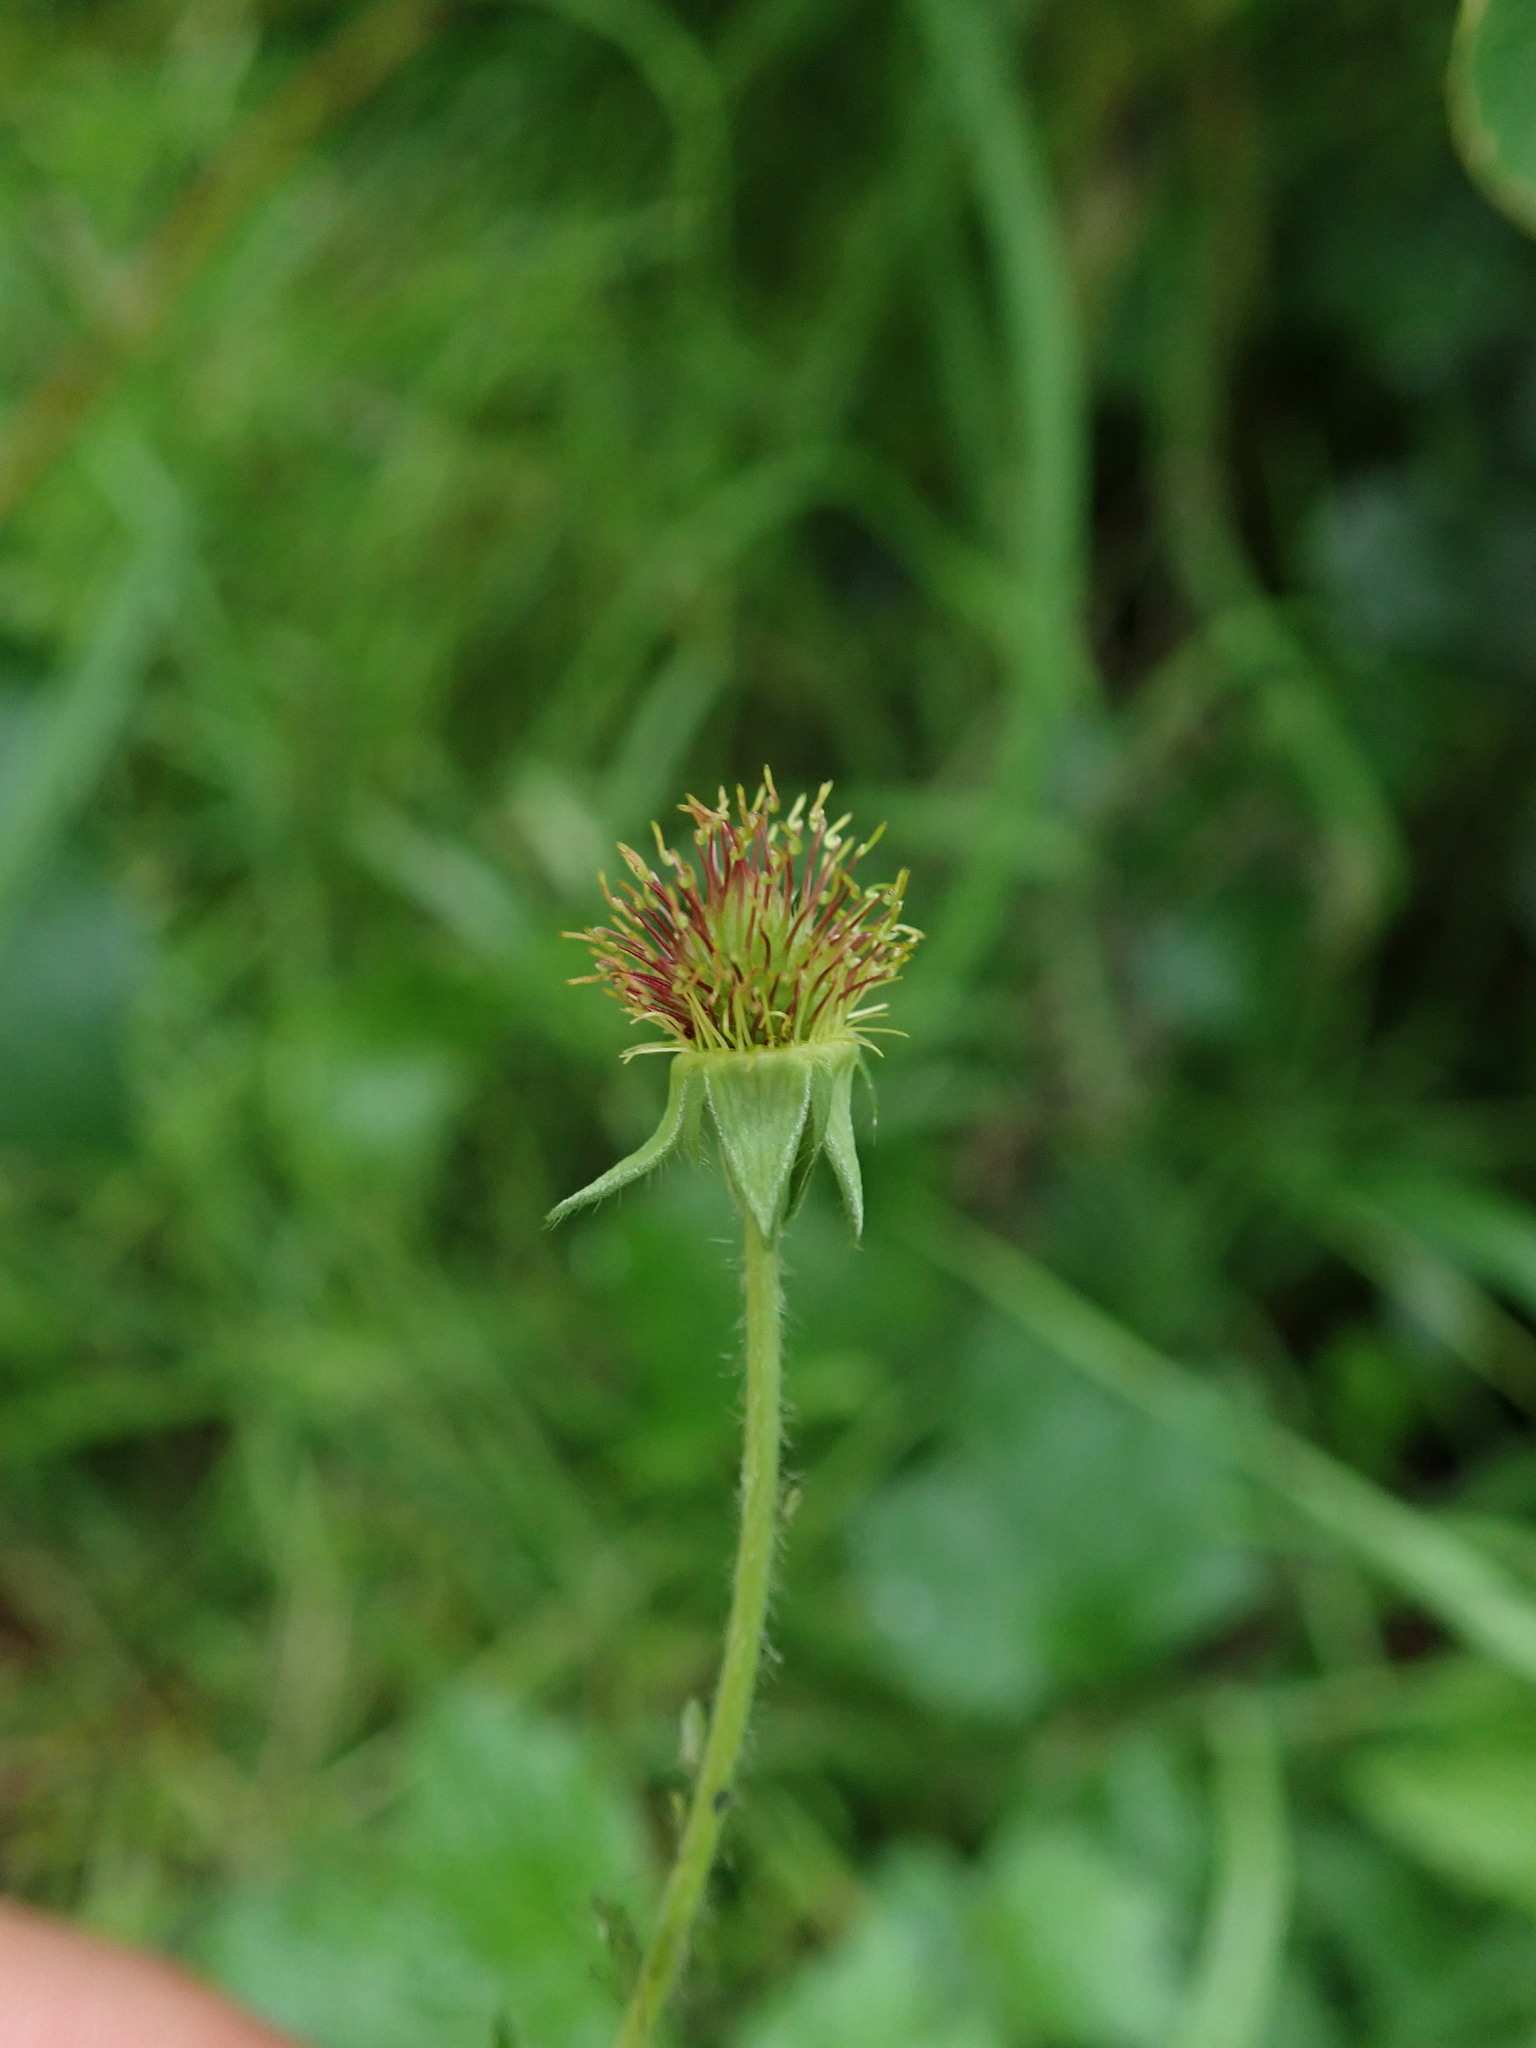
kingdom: Plantae
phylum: Tracheophyta
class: Magnoliopsida
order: Rosales
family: Rosaceae
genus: Geum
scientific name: Geum urbanum
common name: Wood avens
